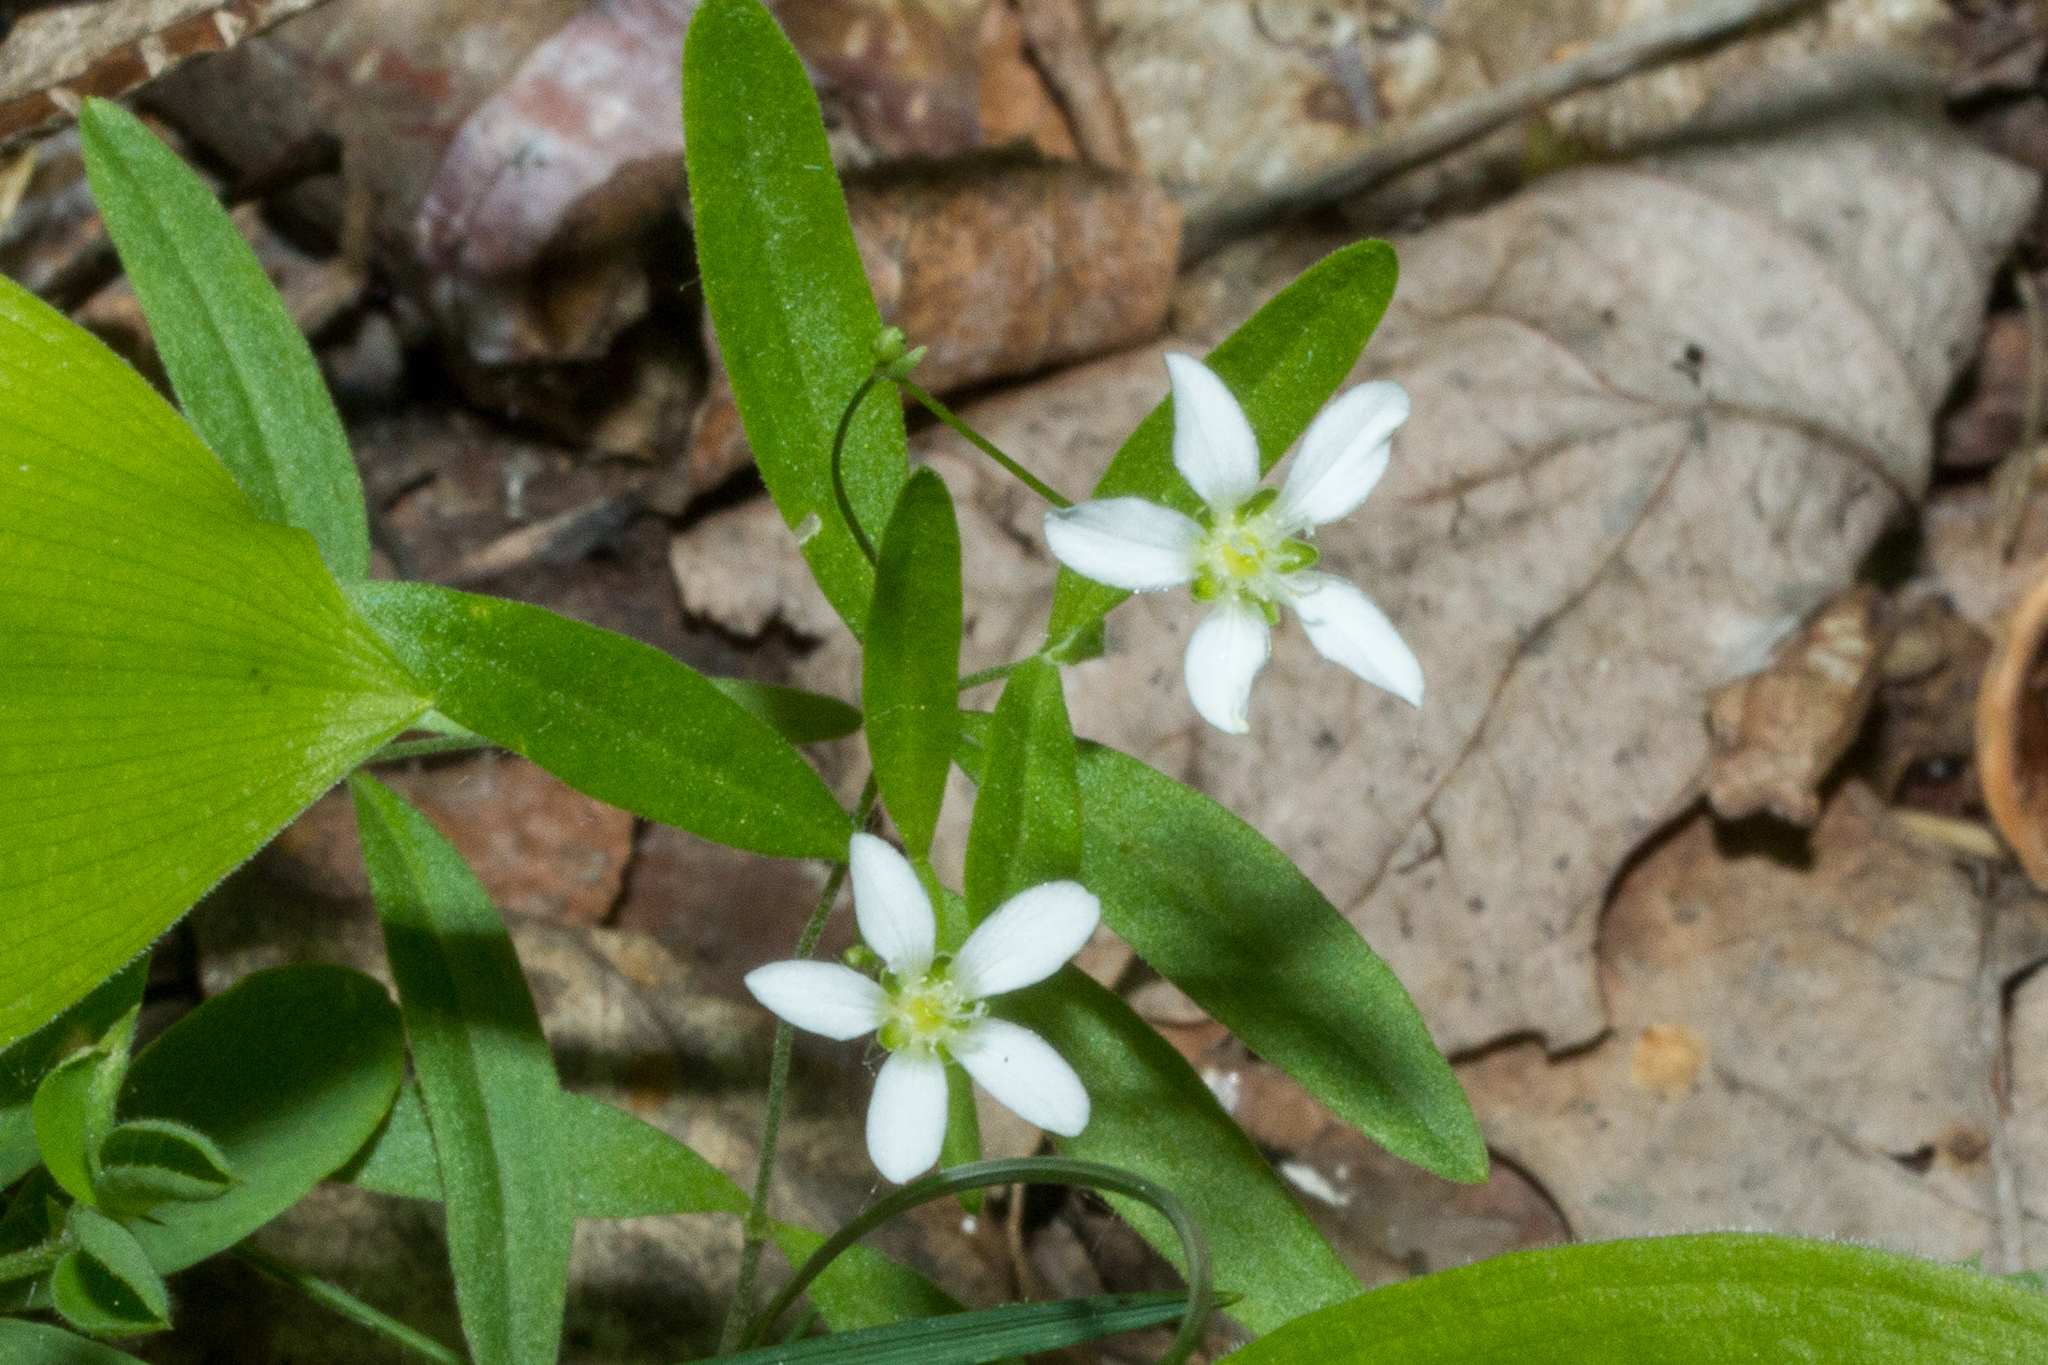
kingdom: Plantae
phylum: Tracheophyta
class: Magnoliopsida
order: Caryophyllales
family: Caryophyllaceae
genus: Moehringia
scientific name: Moehringia lateriflora
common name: Blunt-leaved sandwort
